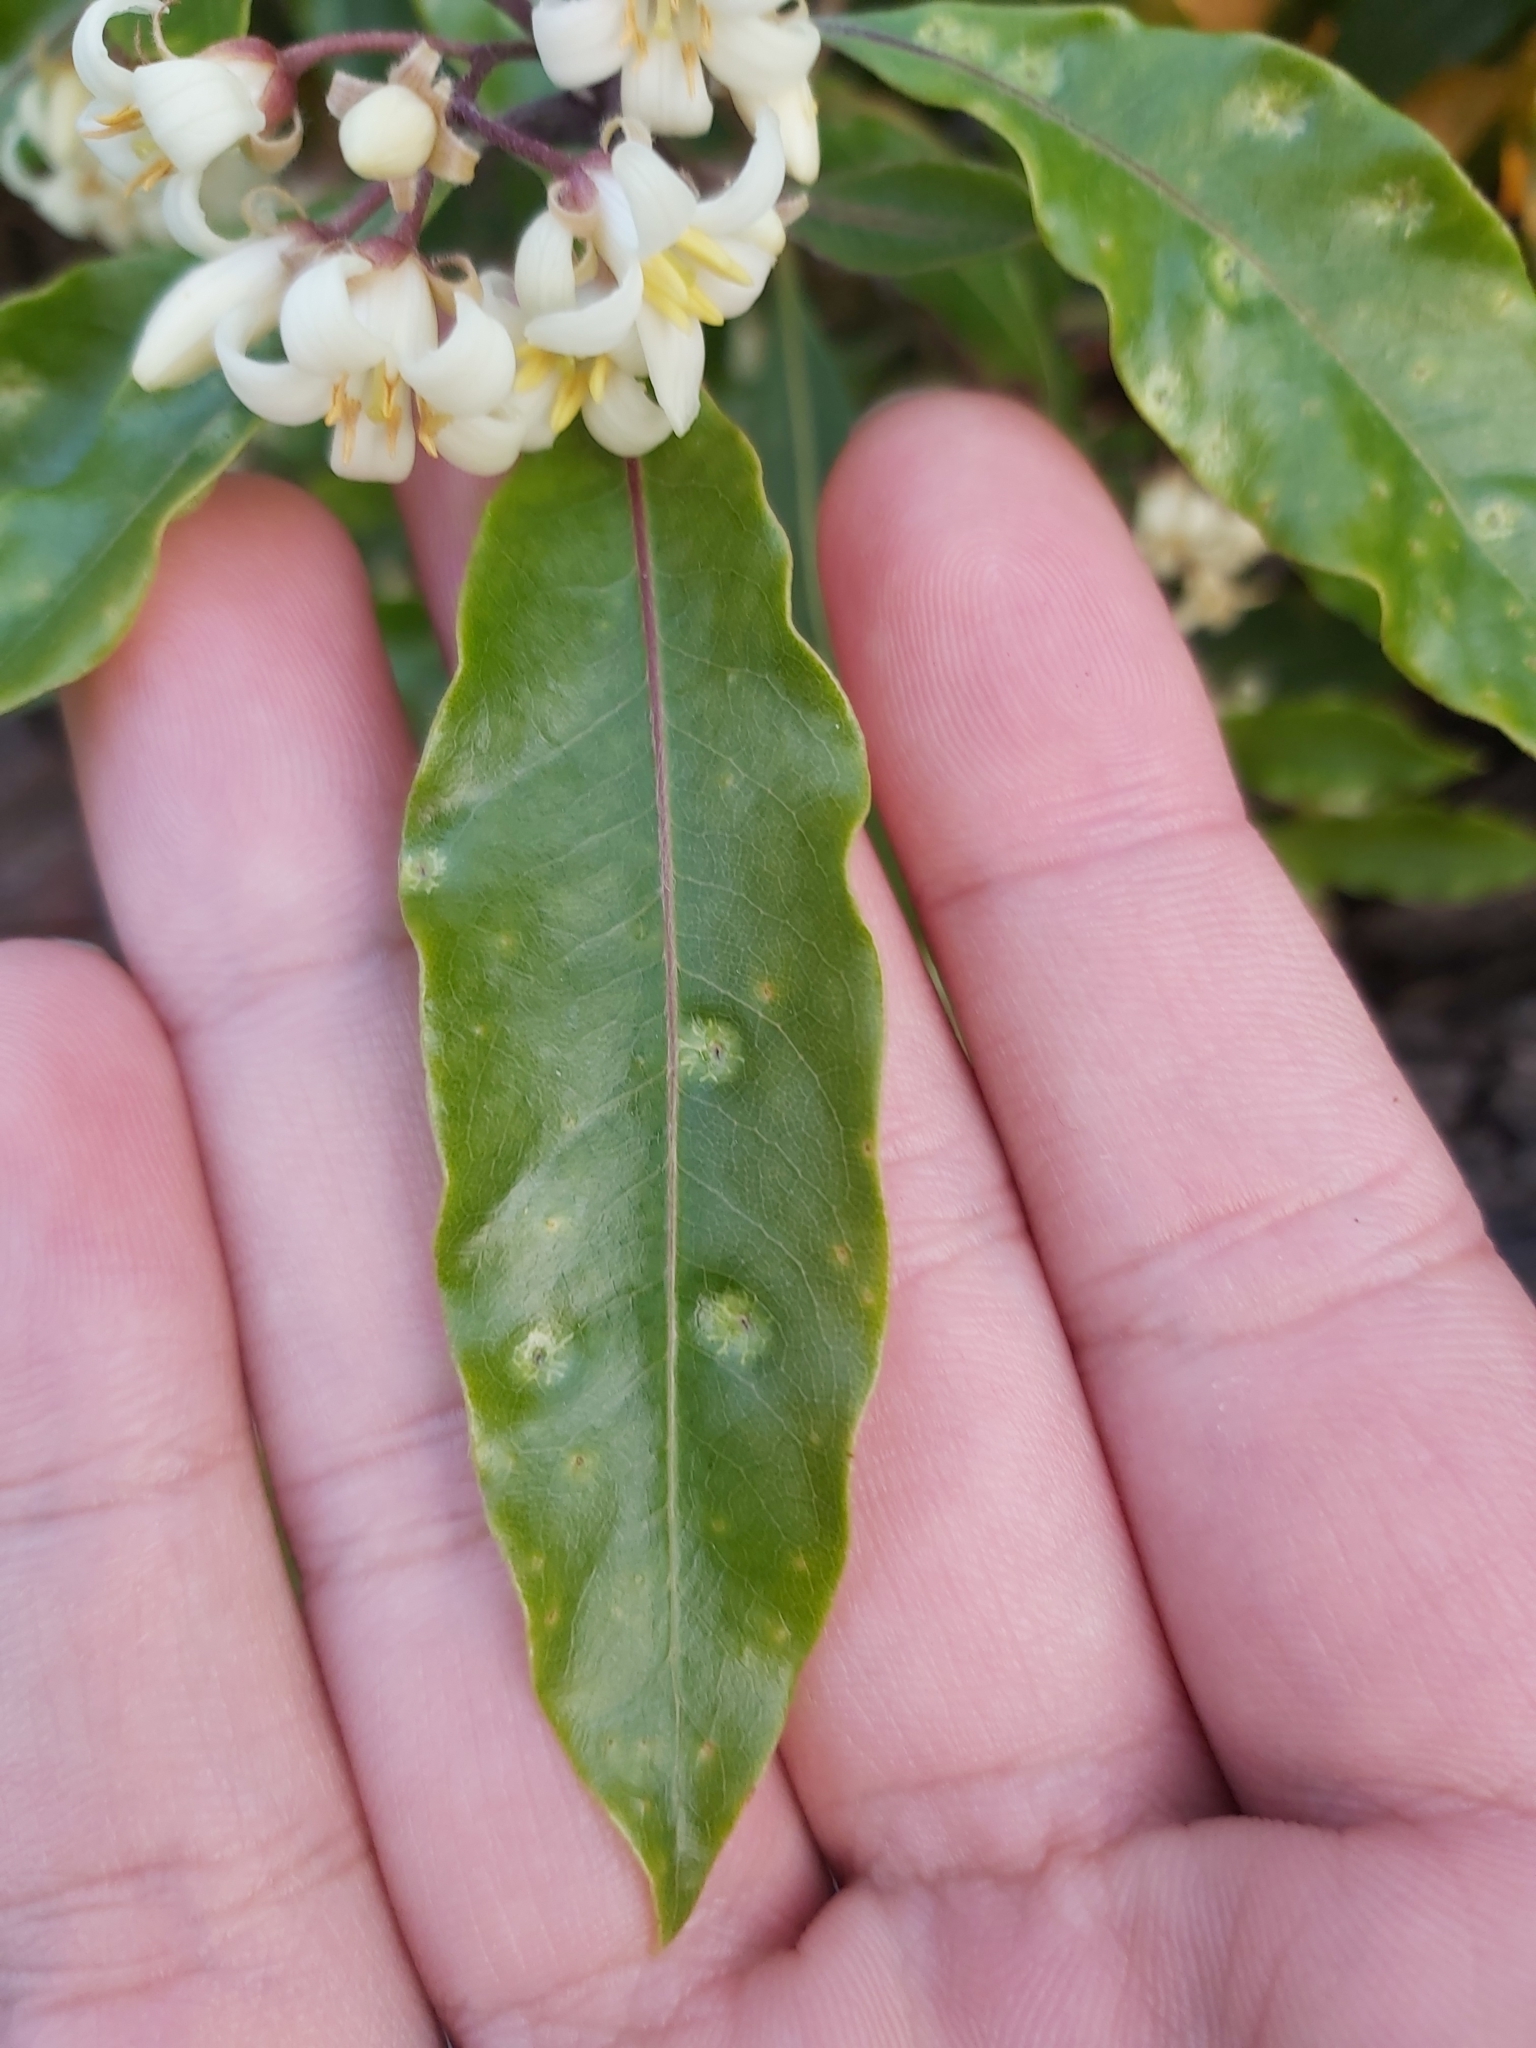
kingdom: Plantae
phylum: Tracheophyta
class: Magnoliopsida
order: Apiales
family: Pittosporaceae
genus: Pittosporum
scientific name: Pittosporum undulatum
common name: Australian cheesewood
